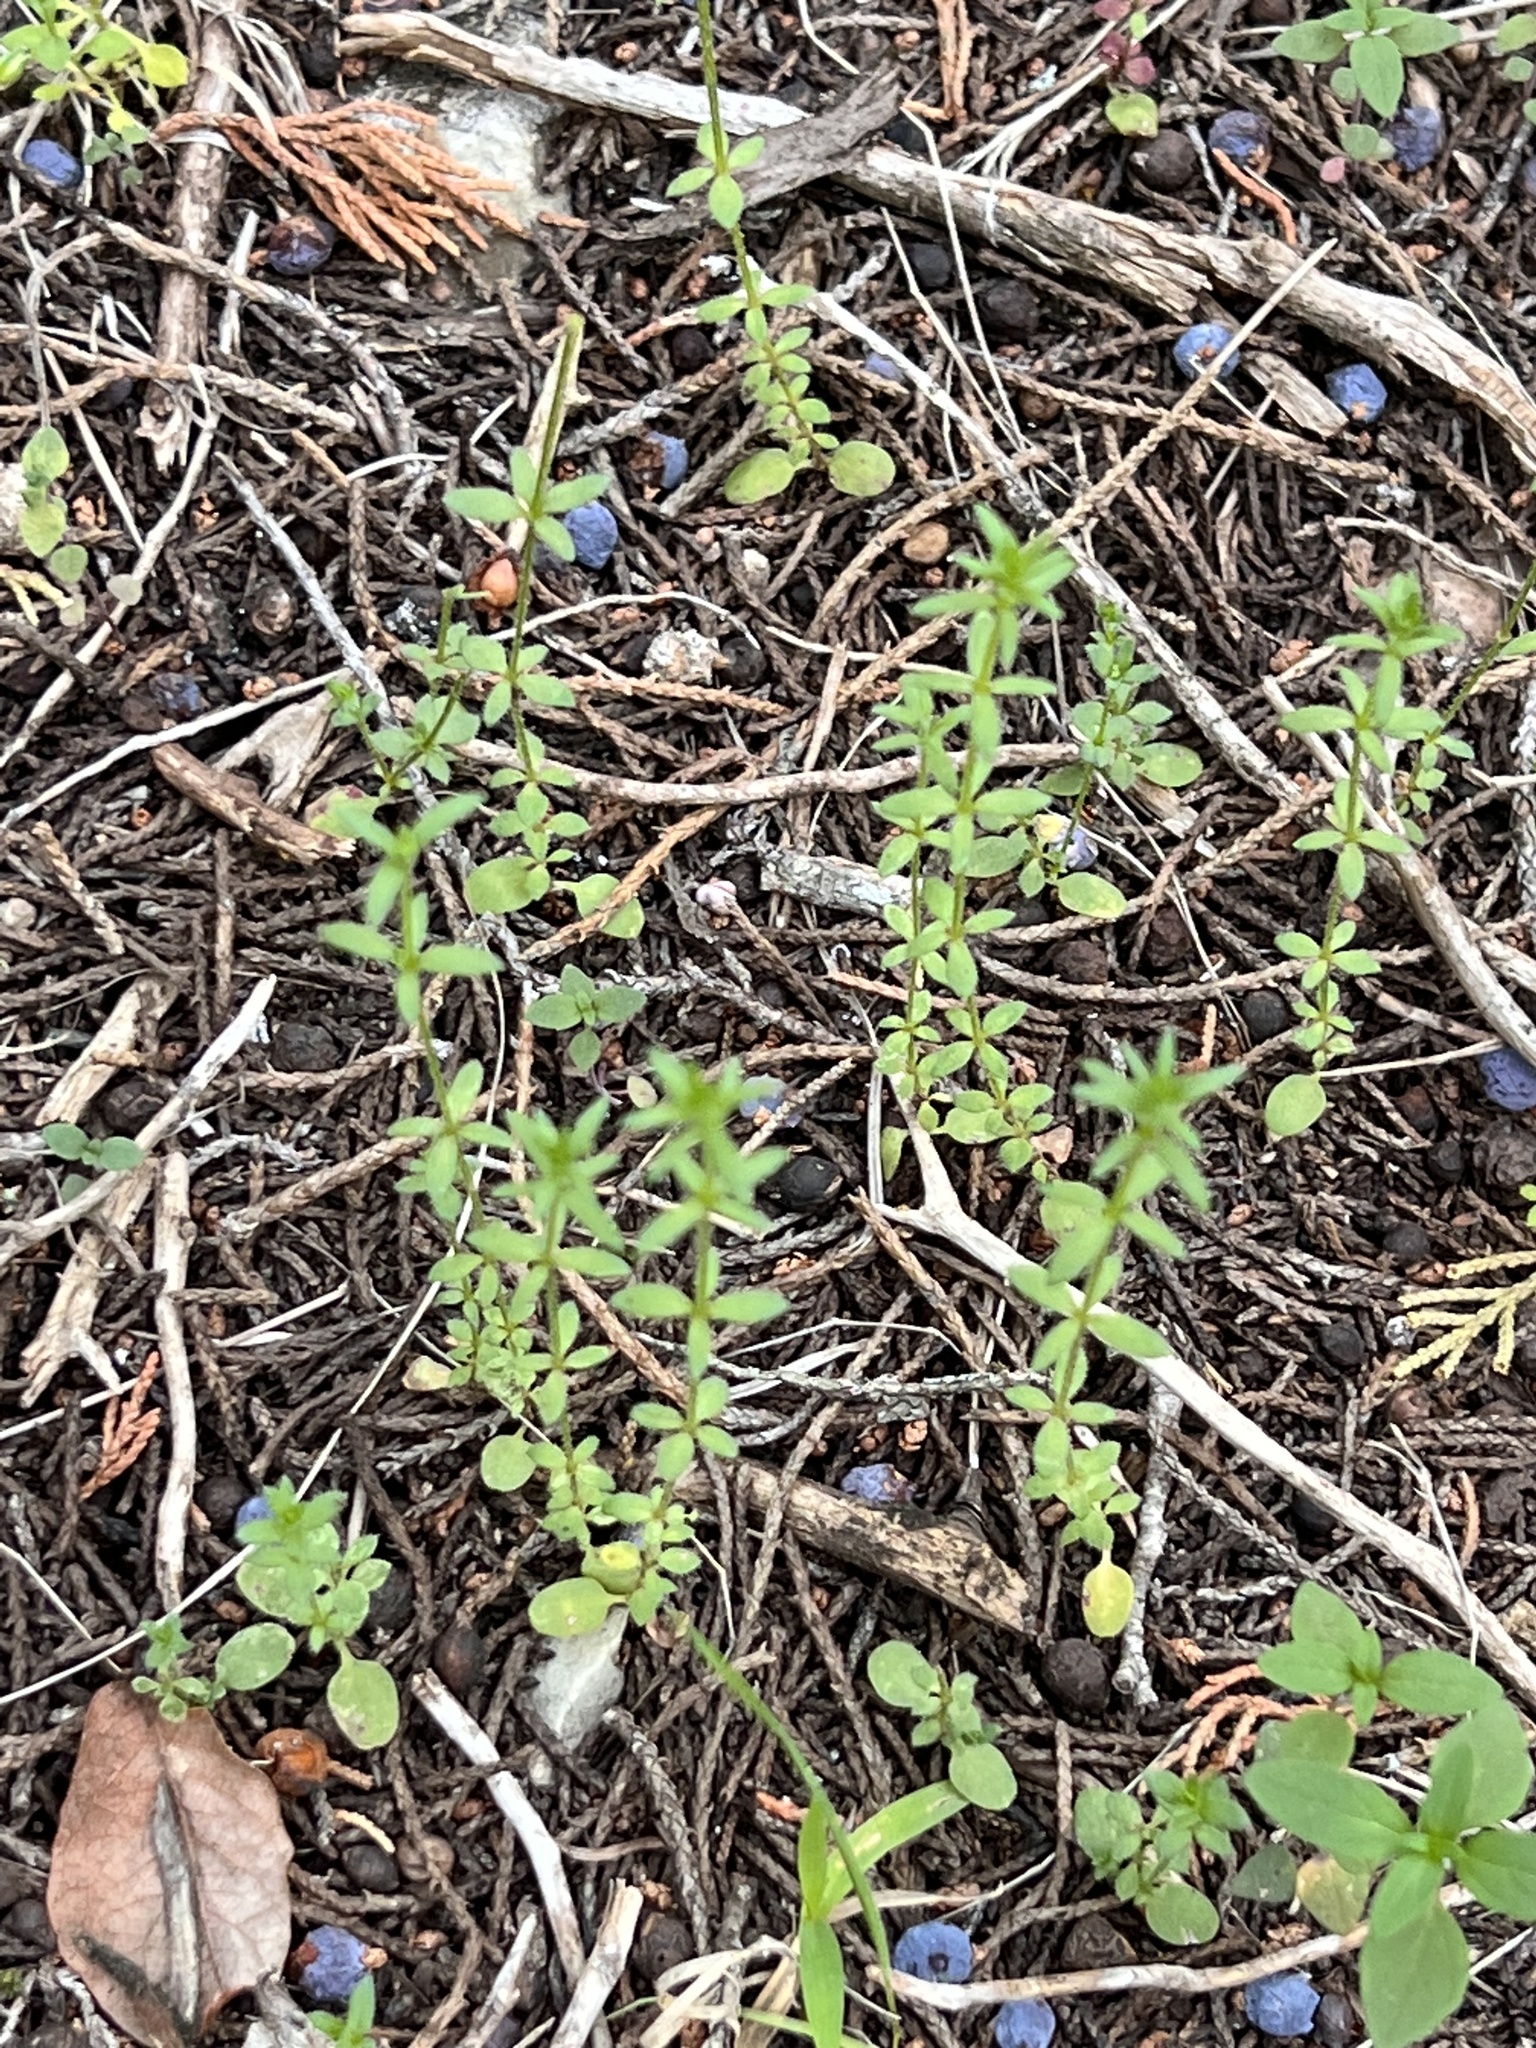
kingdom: Plantae
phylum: Tracheophyta
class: Magnoliopsida
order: Gentianales
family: Rubiaceae
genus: Galium
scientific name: Galium virgatum
